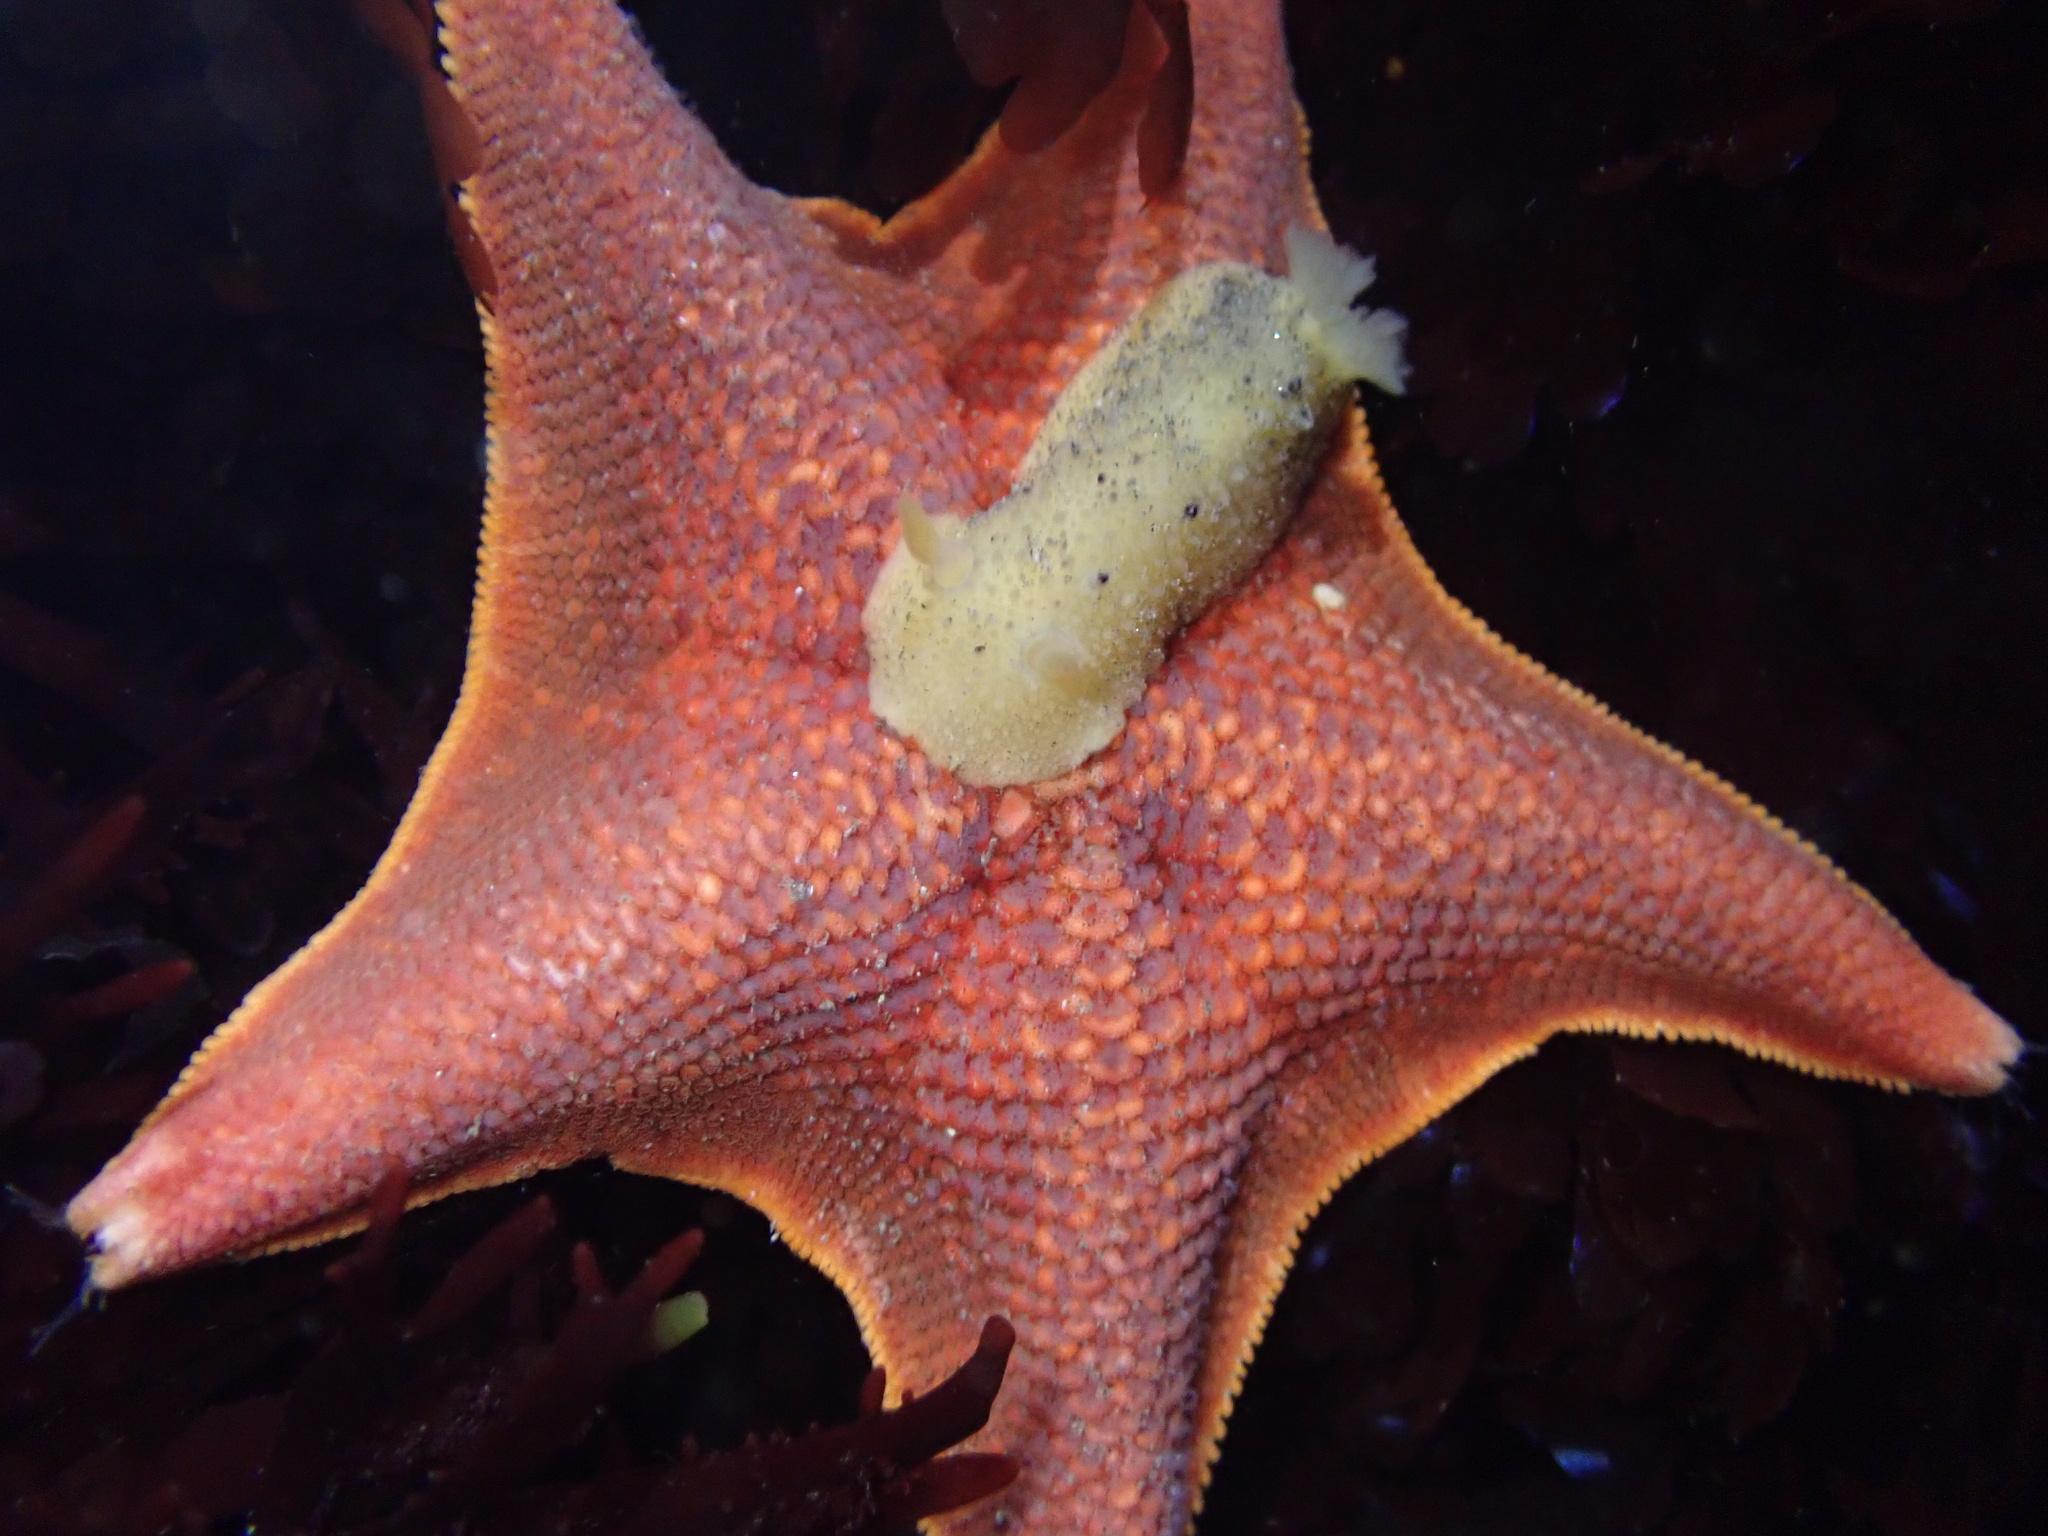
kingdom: Animalia
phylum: Echinodermata
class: Asteroidea
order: Valvatida
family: Asterinidae
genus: Patiria
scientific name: Patiria miniata
